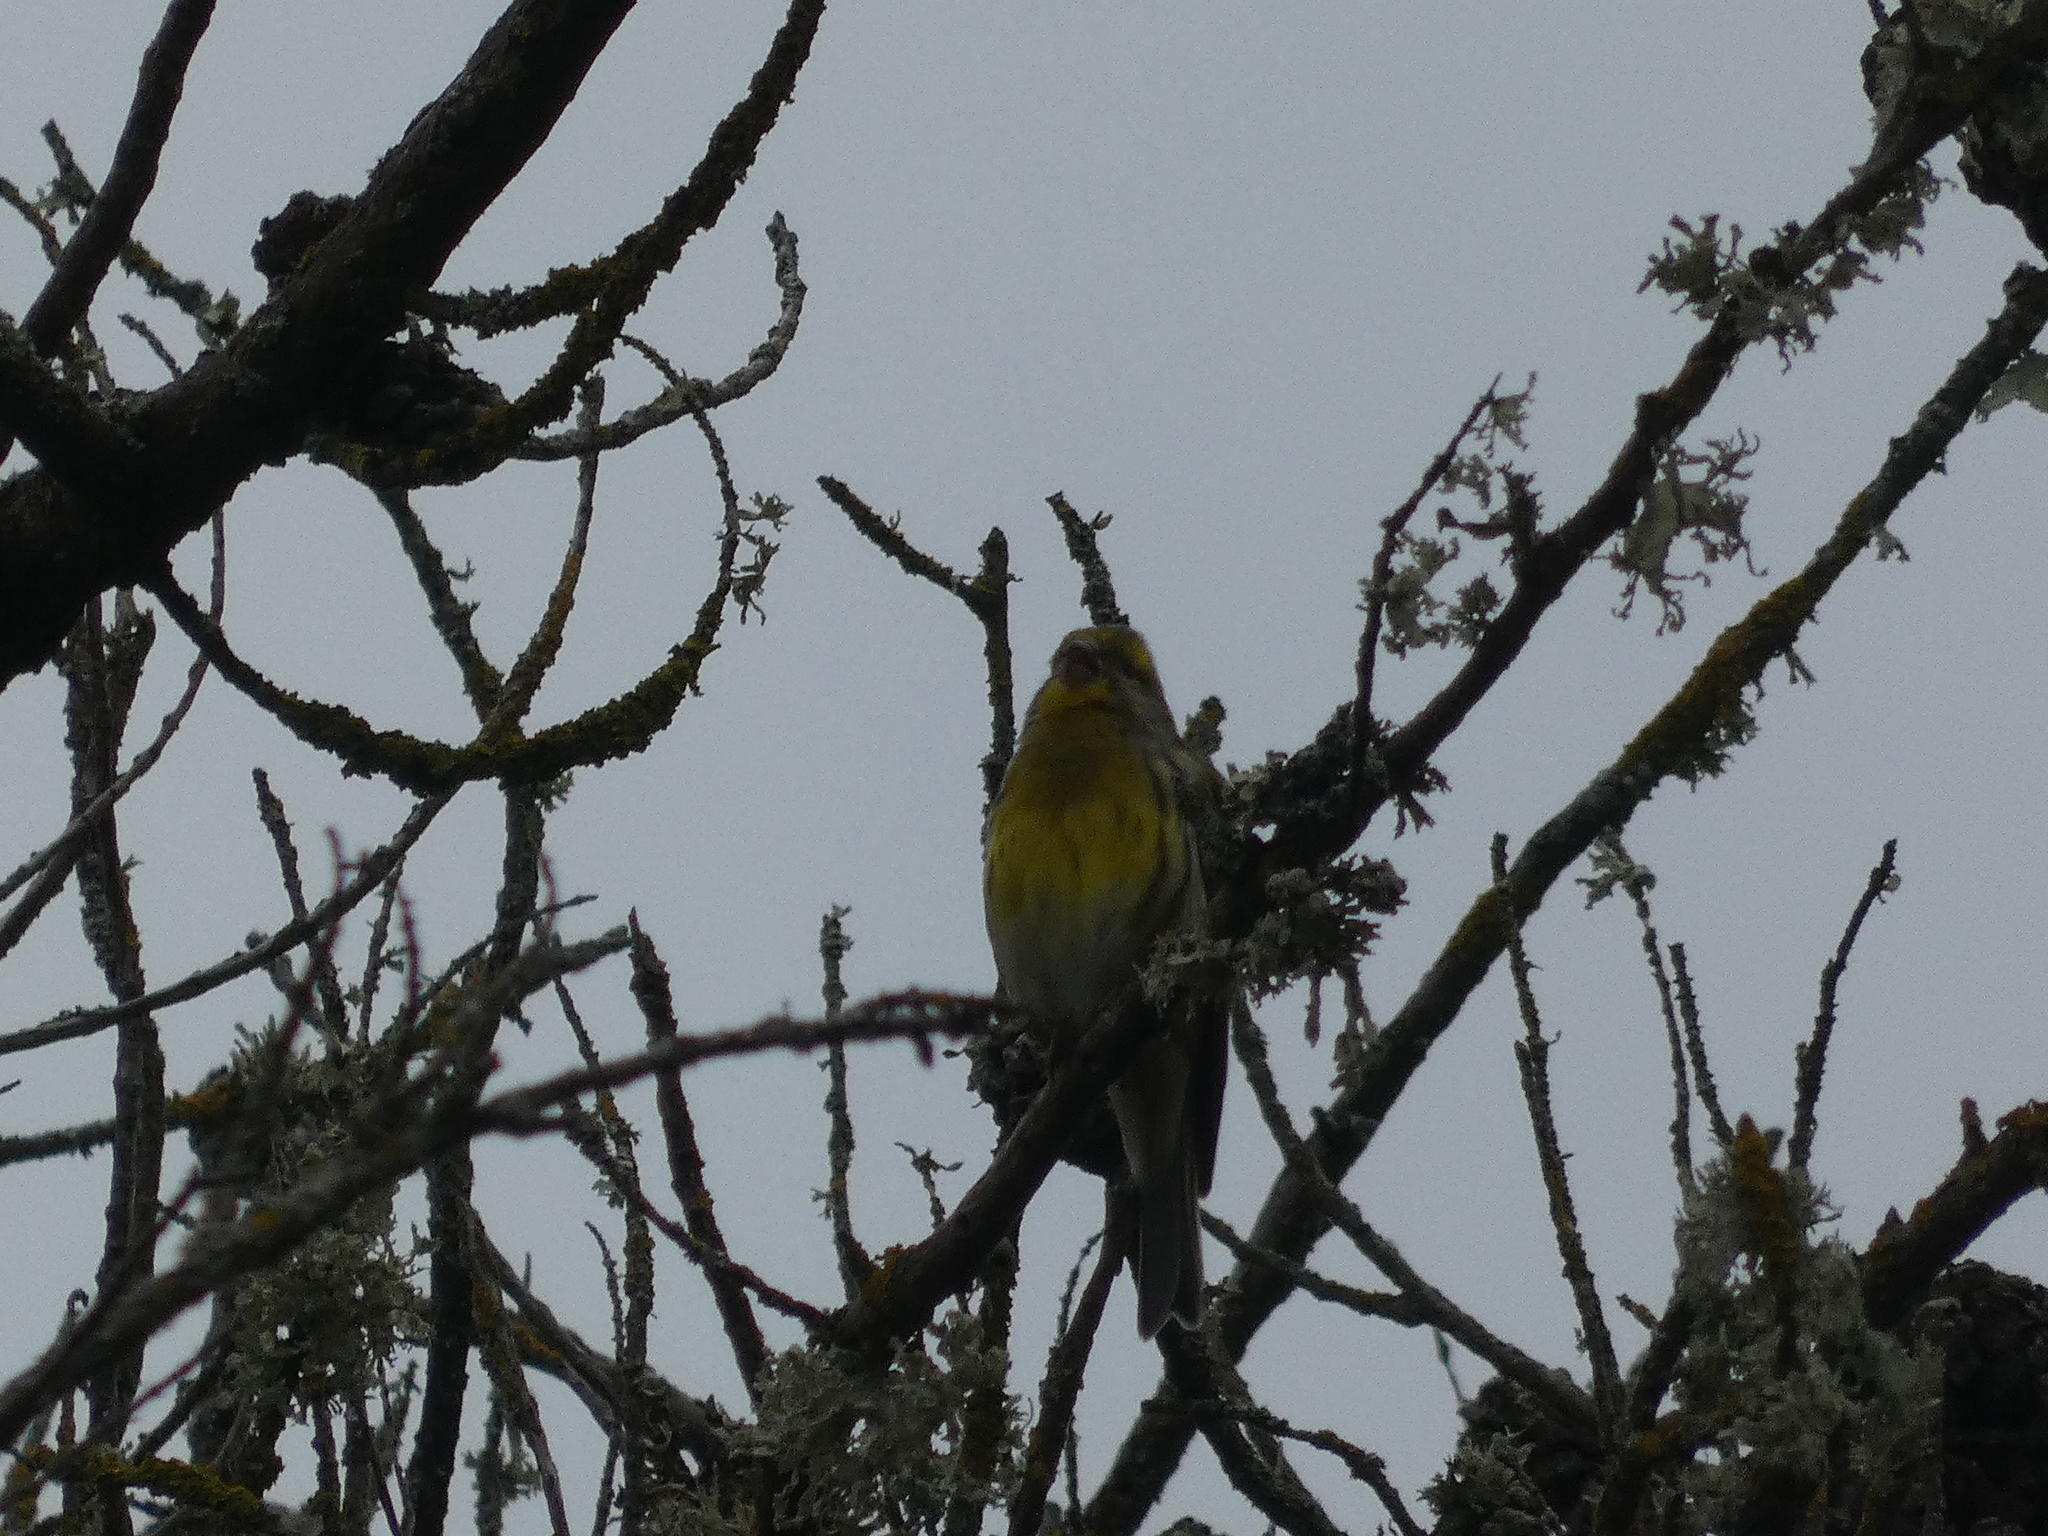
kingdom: Animalia
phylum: Chordata
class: Aves
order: Passeriformes
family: Fringillidae
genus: Serinus
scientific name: Serinus serinus
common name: European serin
